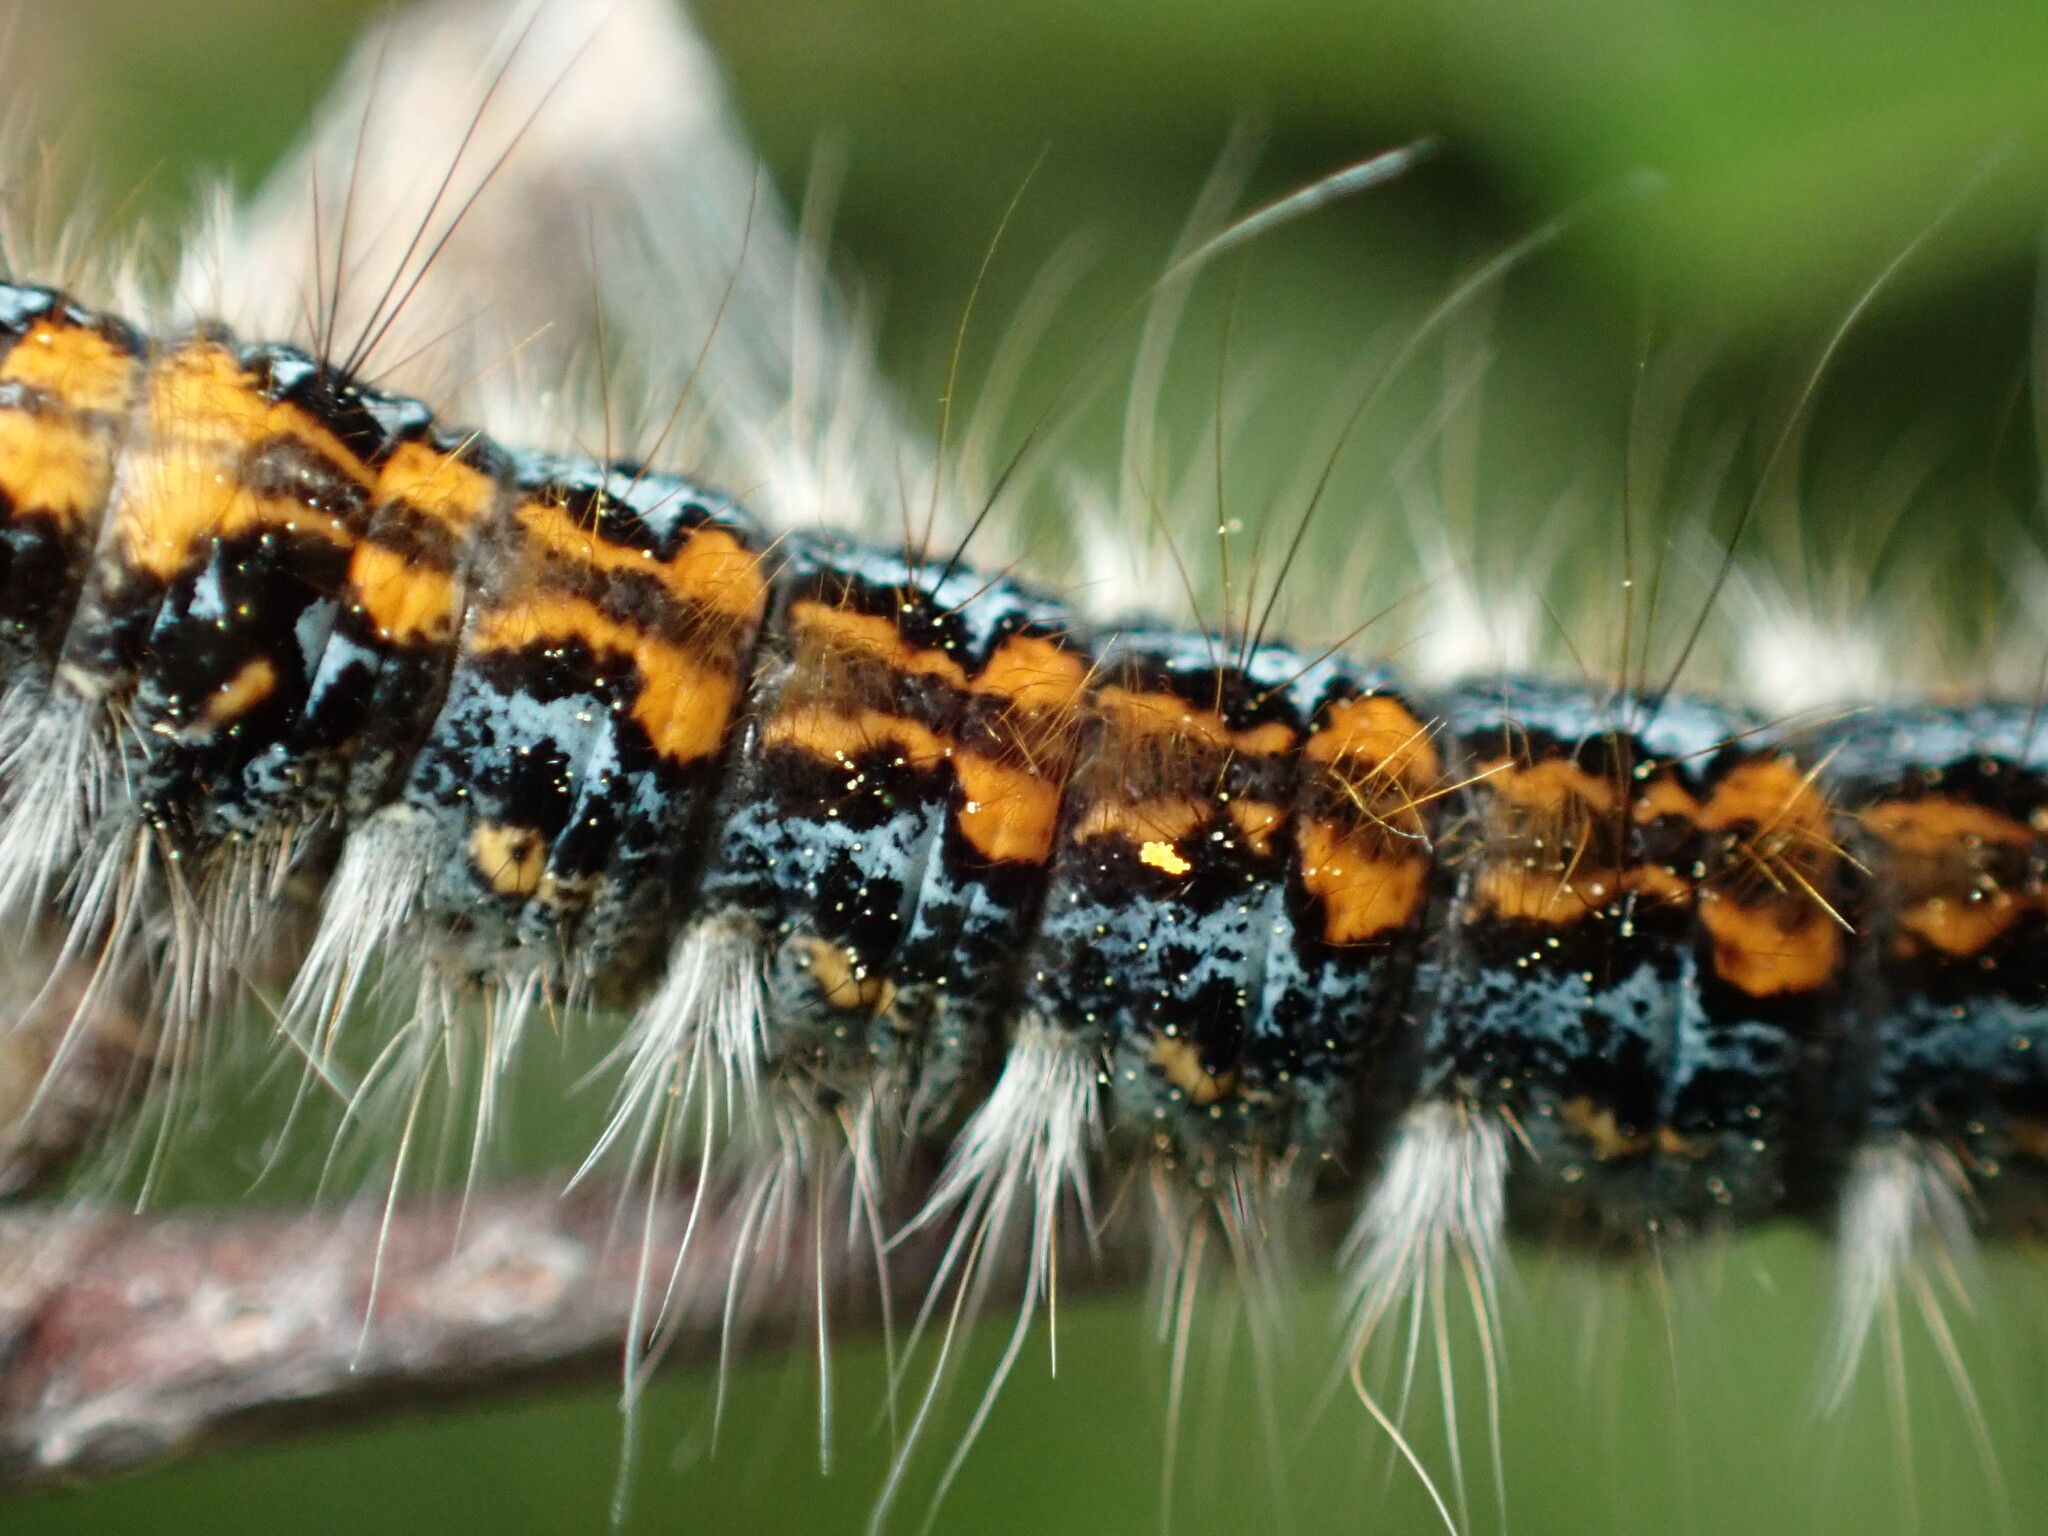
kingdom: Animalia
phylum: Arthropoda
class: Insecta
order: Lepidoptera
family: Lasiocampidae
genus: Malacosoma
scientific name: Malacosoma constricta
